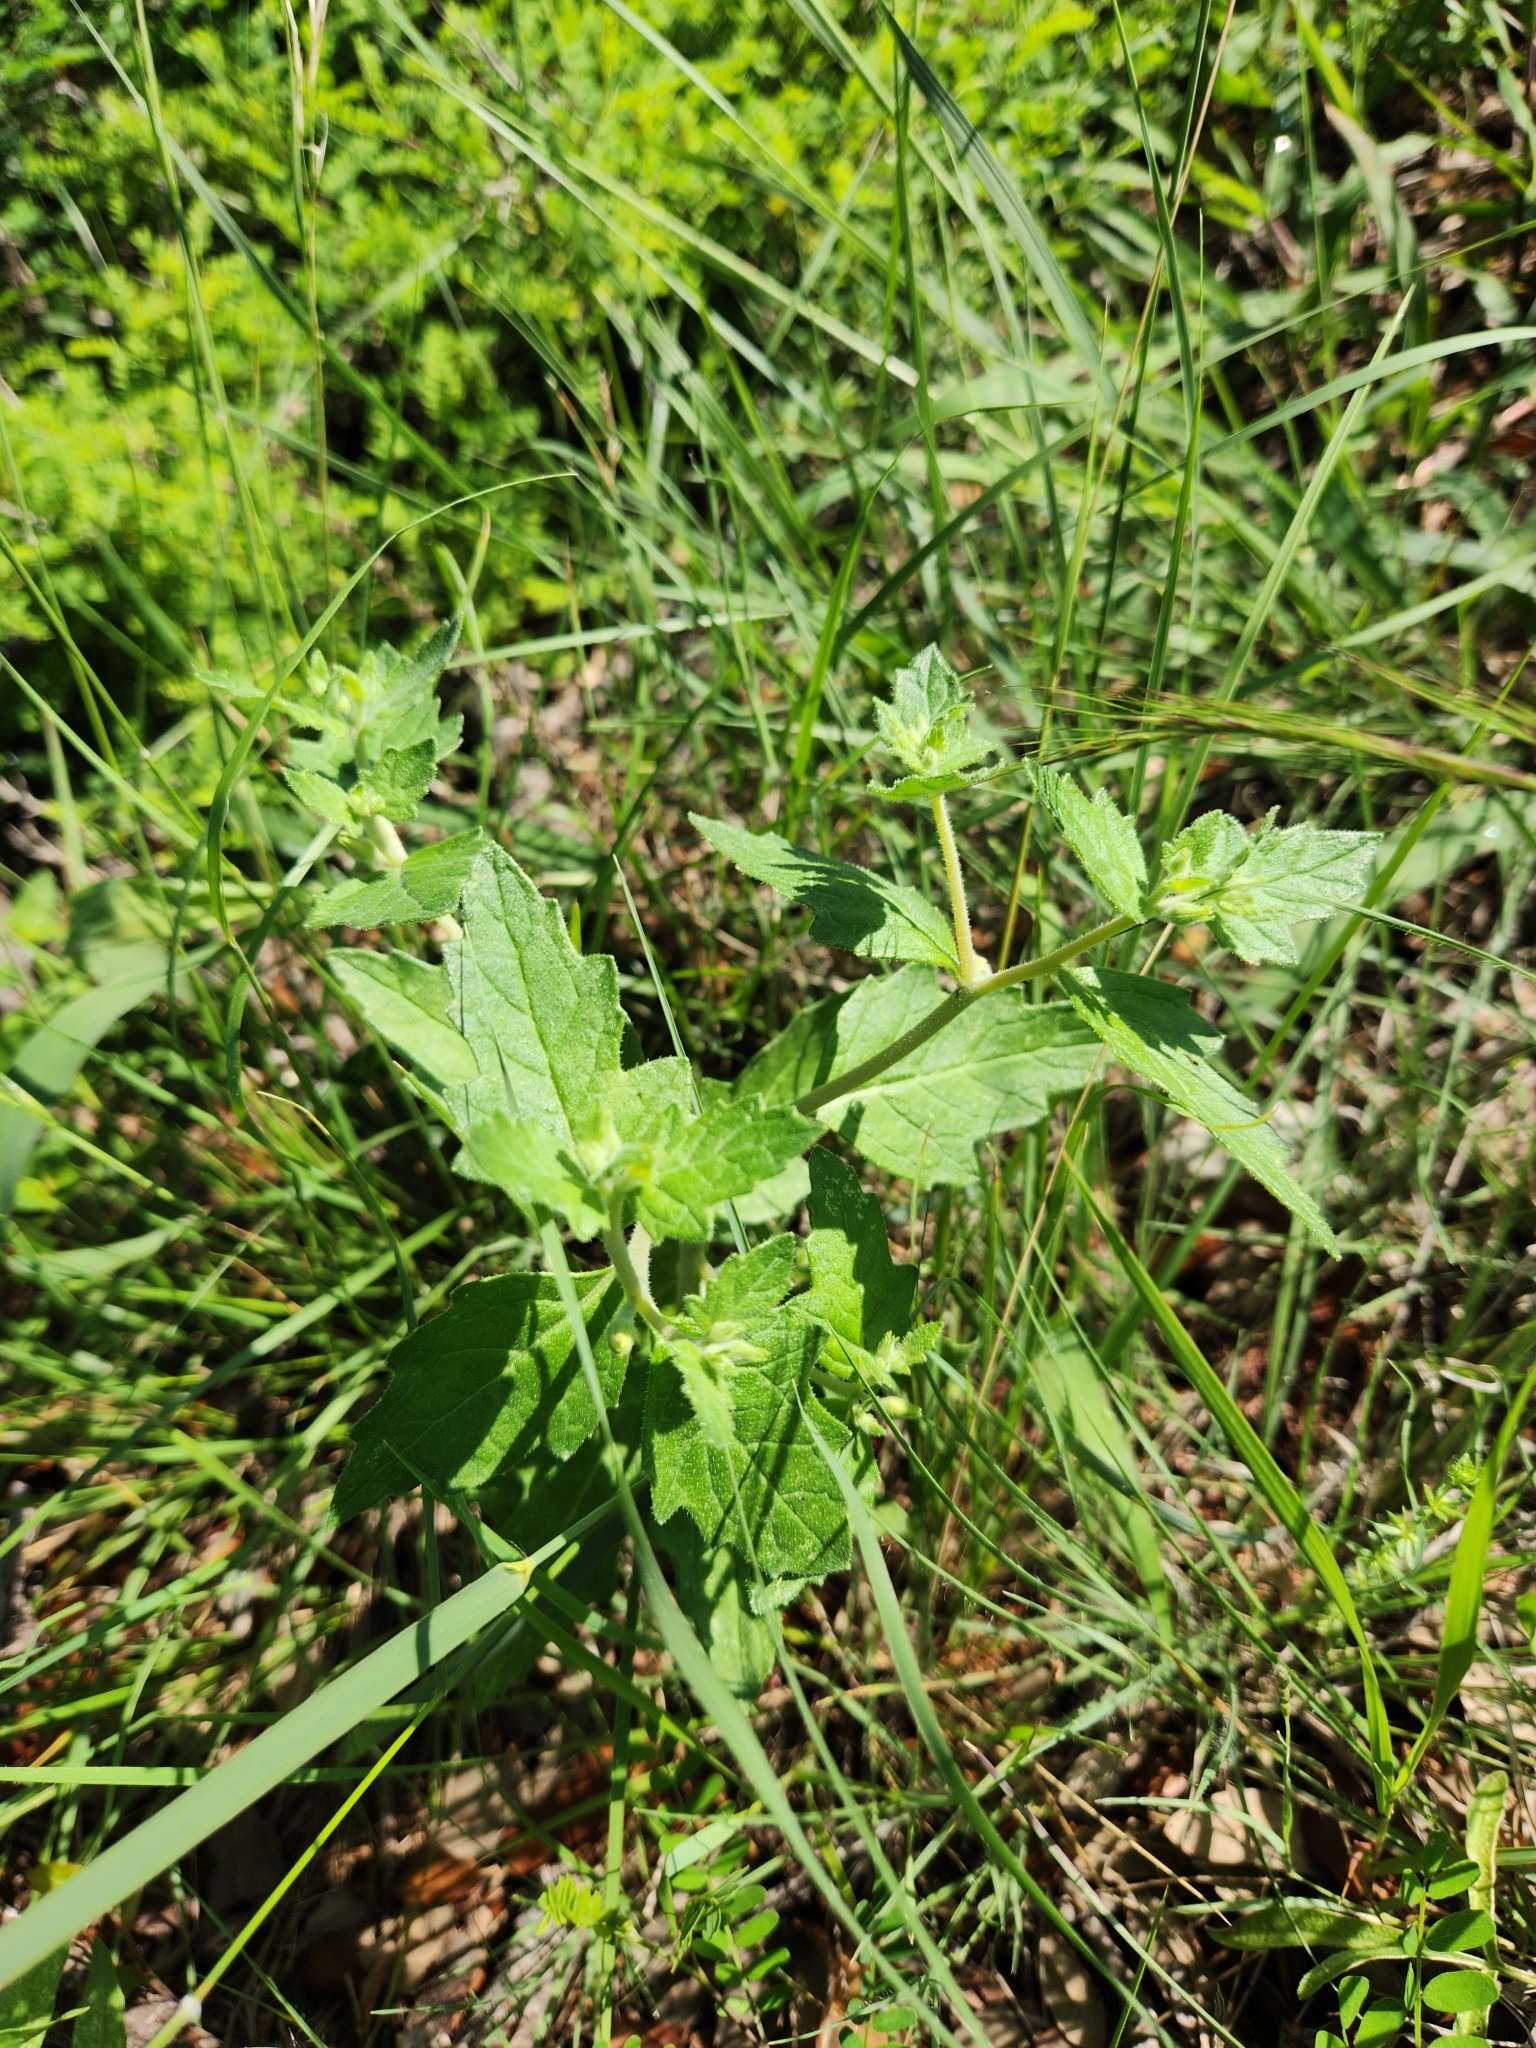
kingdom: Plantae
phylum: Tracheophyta
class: Magnoliopsida
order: Cornales
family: Loasaceae
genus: Mentzelia
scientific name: Mentzelia oligosperma
